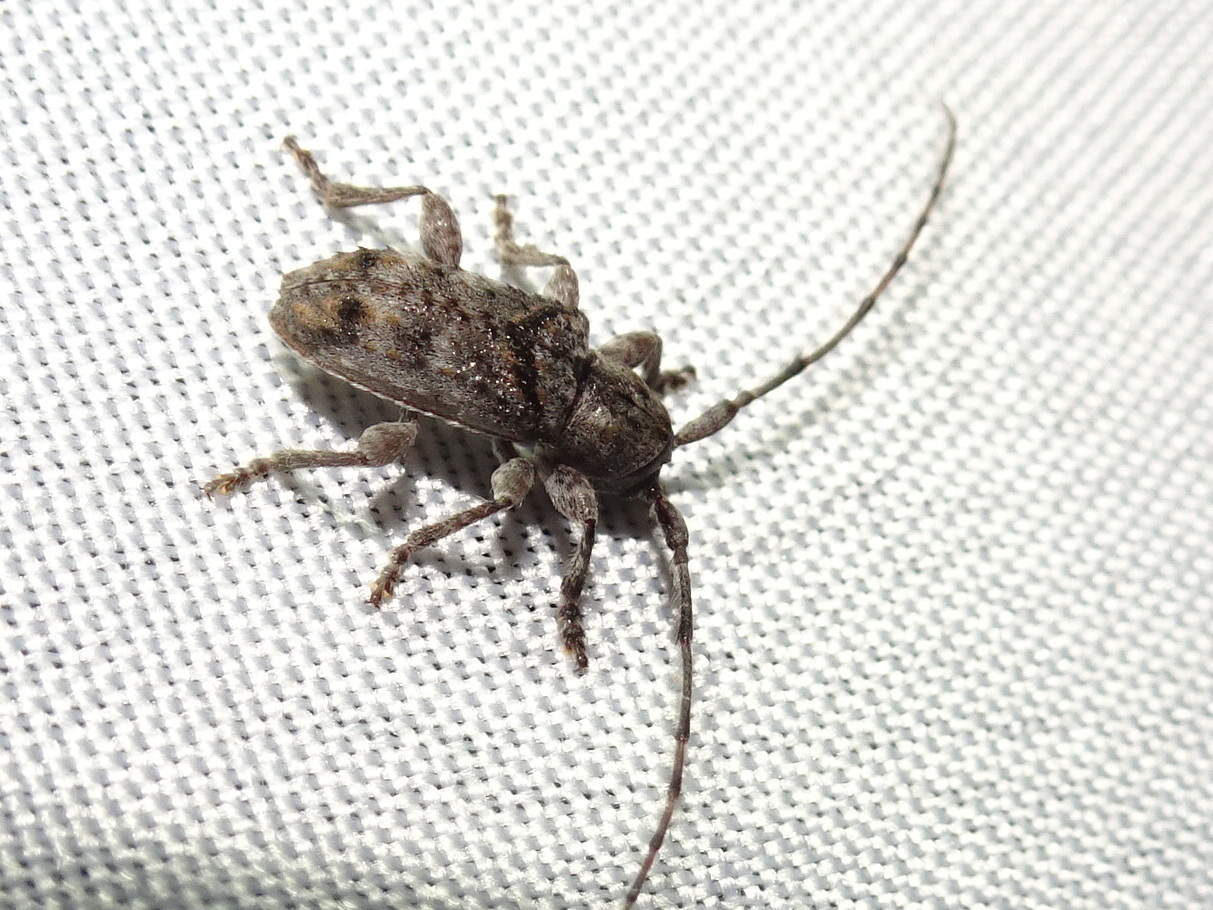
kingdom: Animalia
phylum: Arthropoda
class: Insecta
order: Coleoptera
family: Cerambycidae
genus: Ecyrus
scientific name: Ecyrus dasycerus
